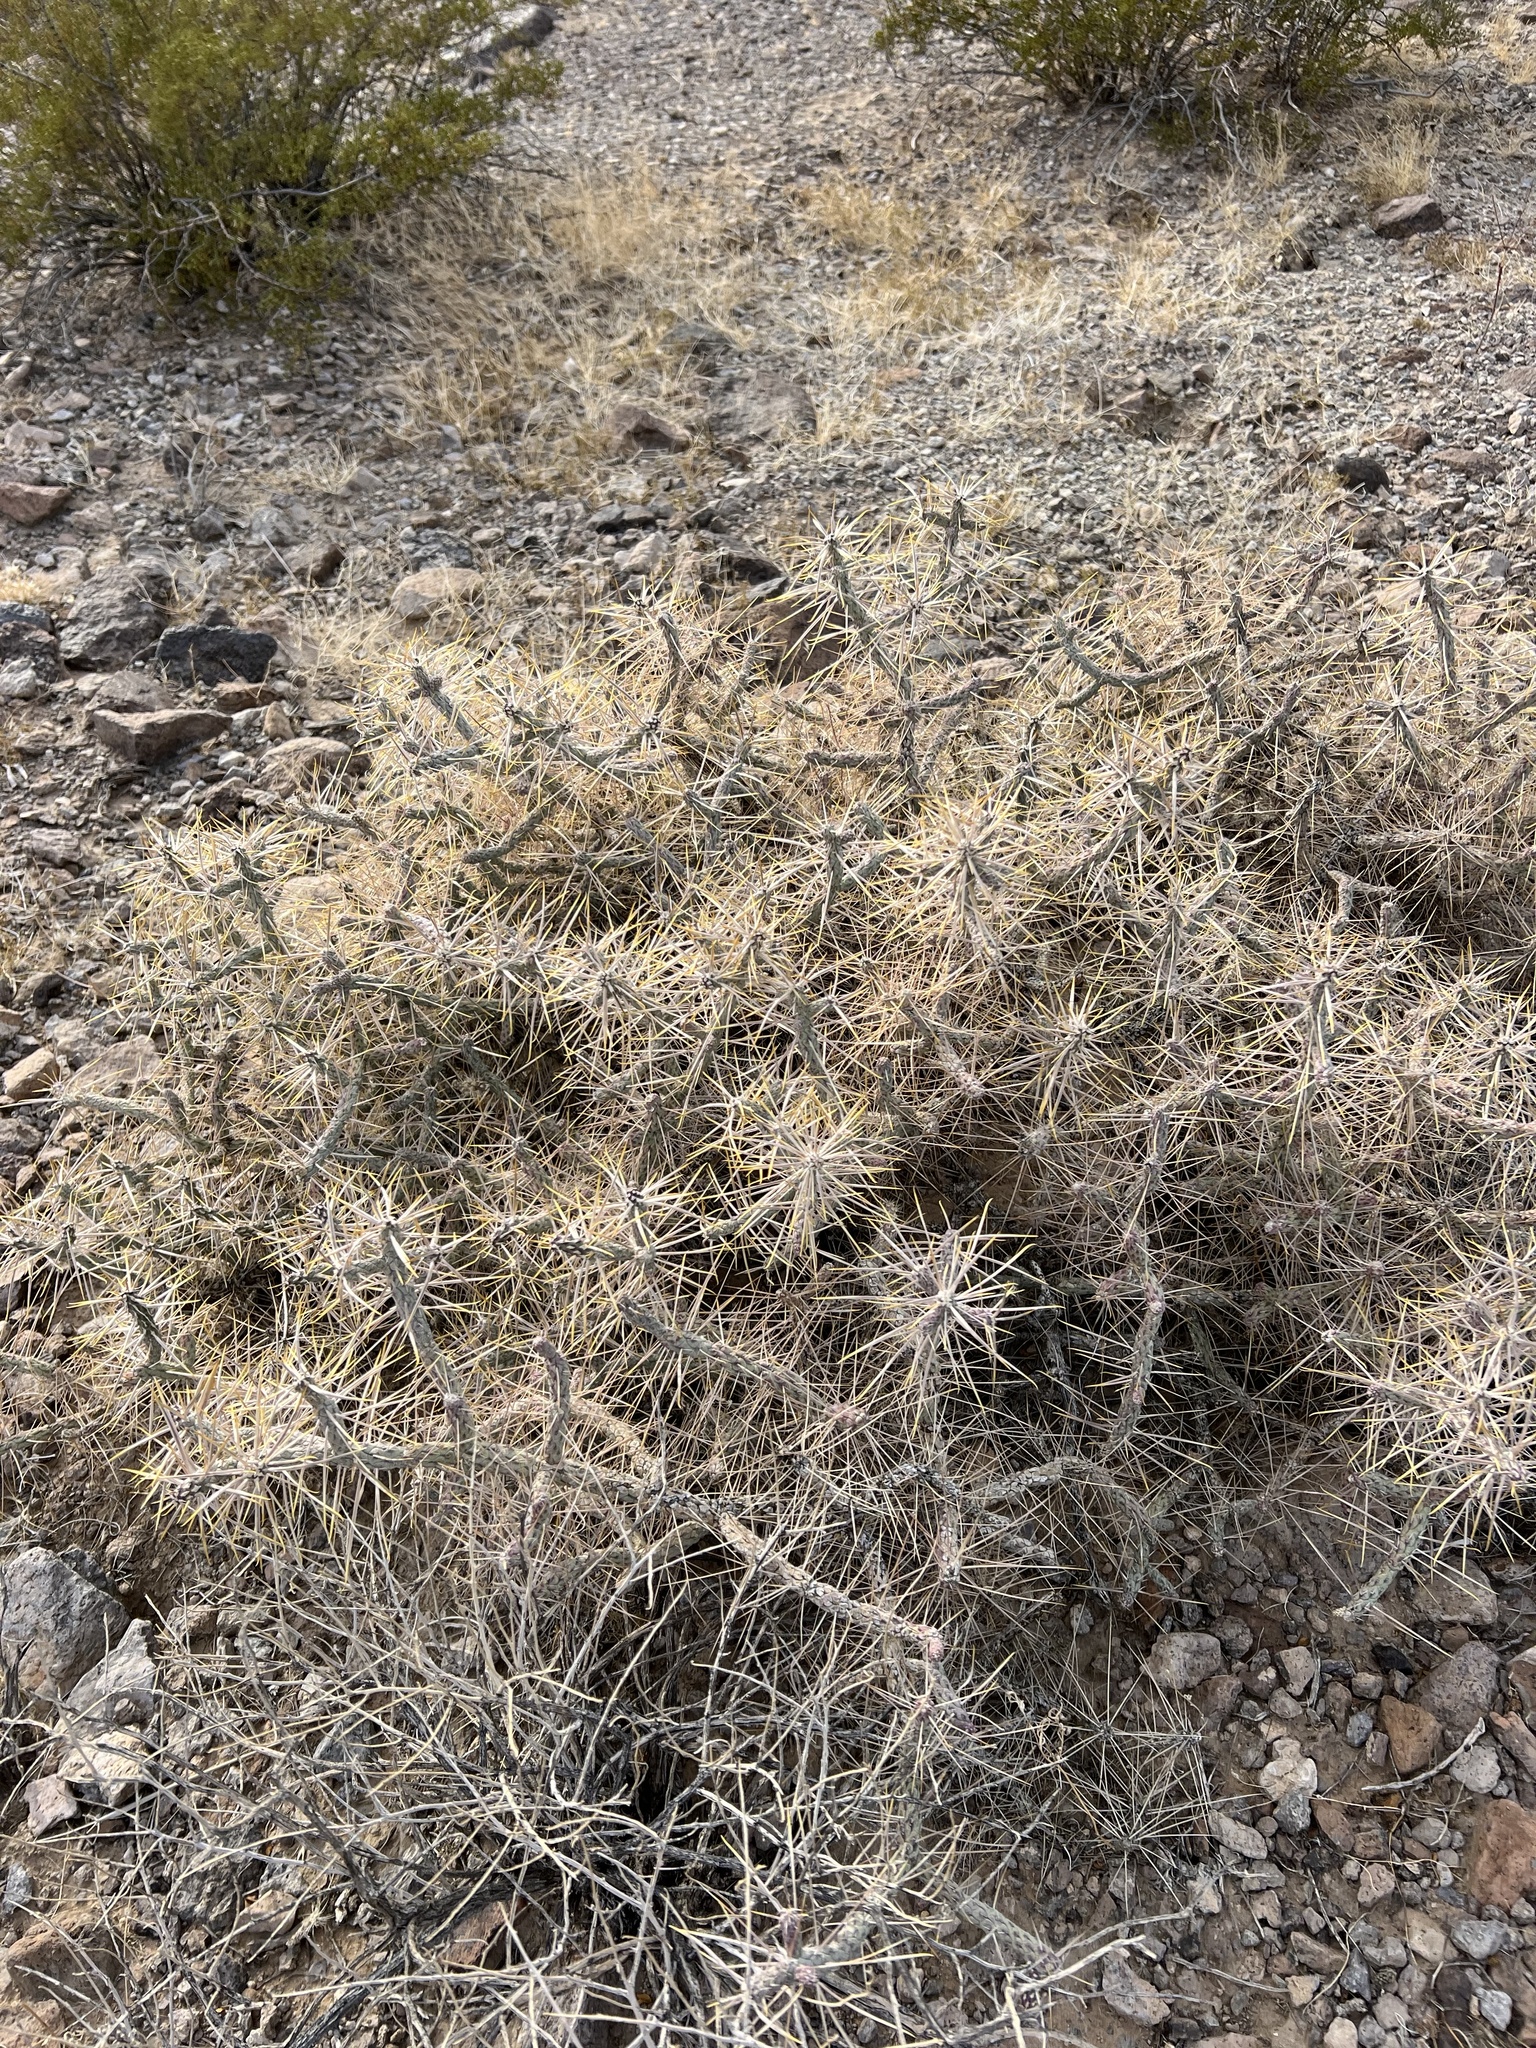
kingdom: Plantae
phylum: Tracheophyta
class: Magnoliopsida
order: Caryophyllales
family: Cactaceae
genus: Cylindropuntia
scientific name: Cylindropuntia ramosissima
